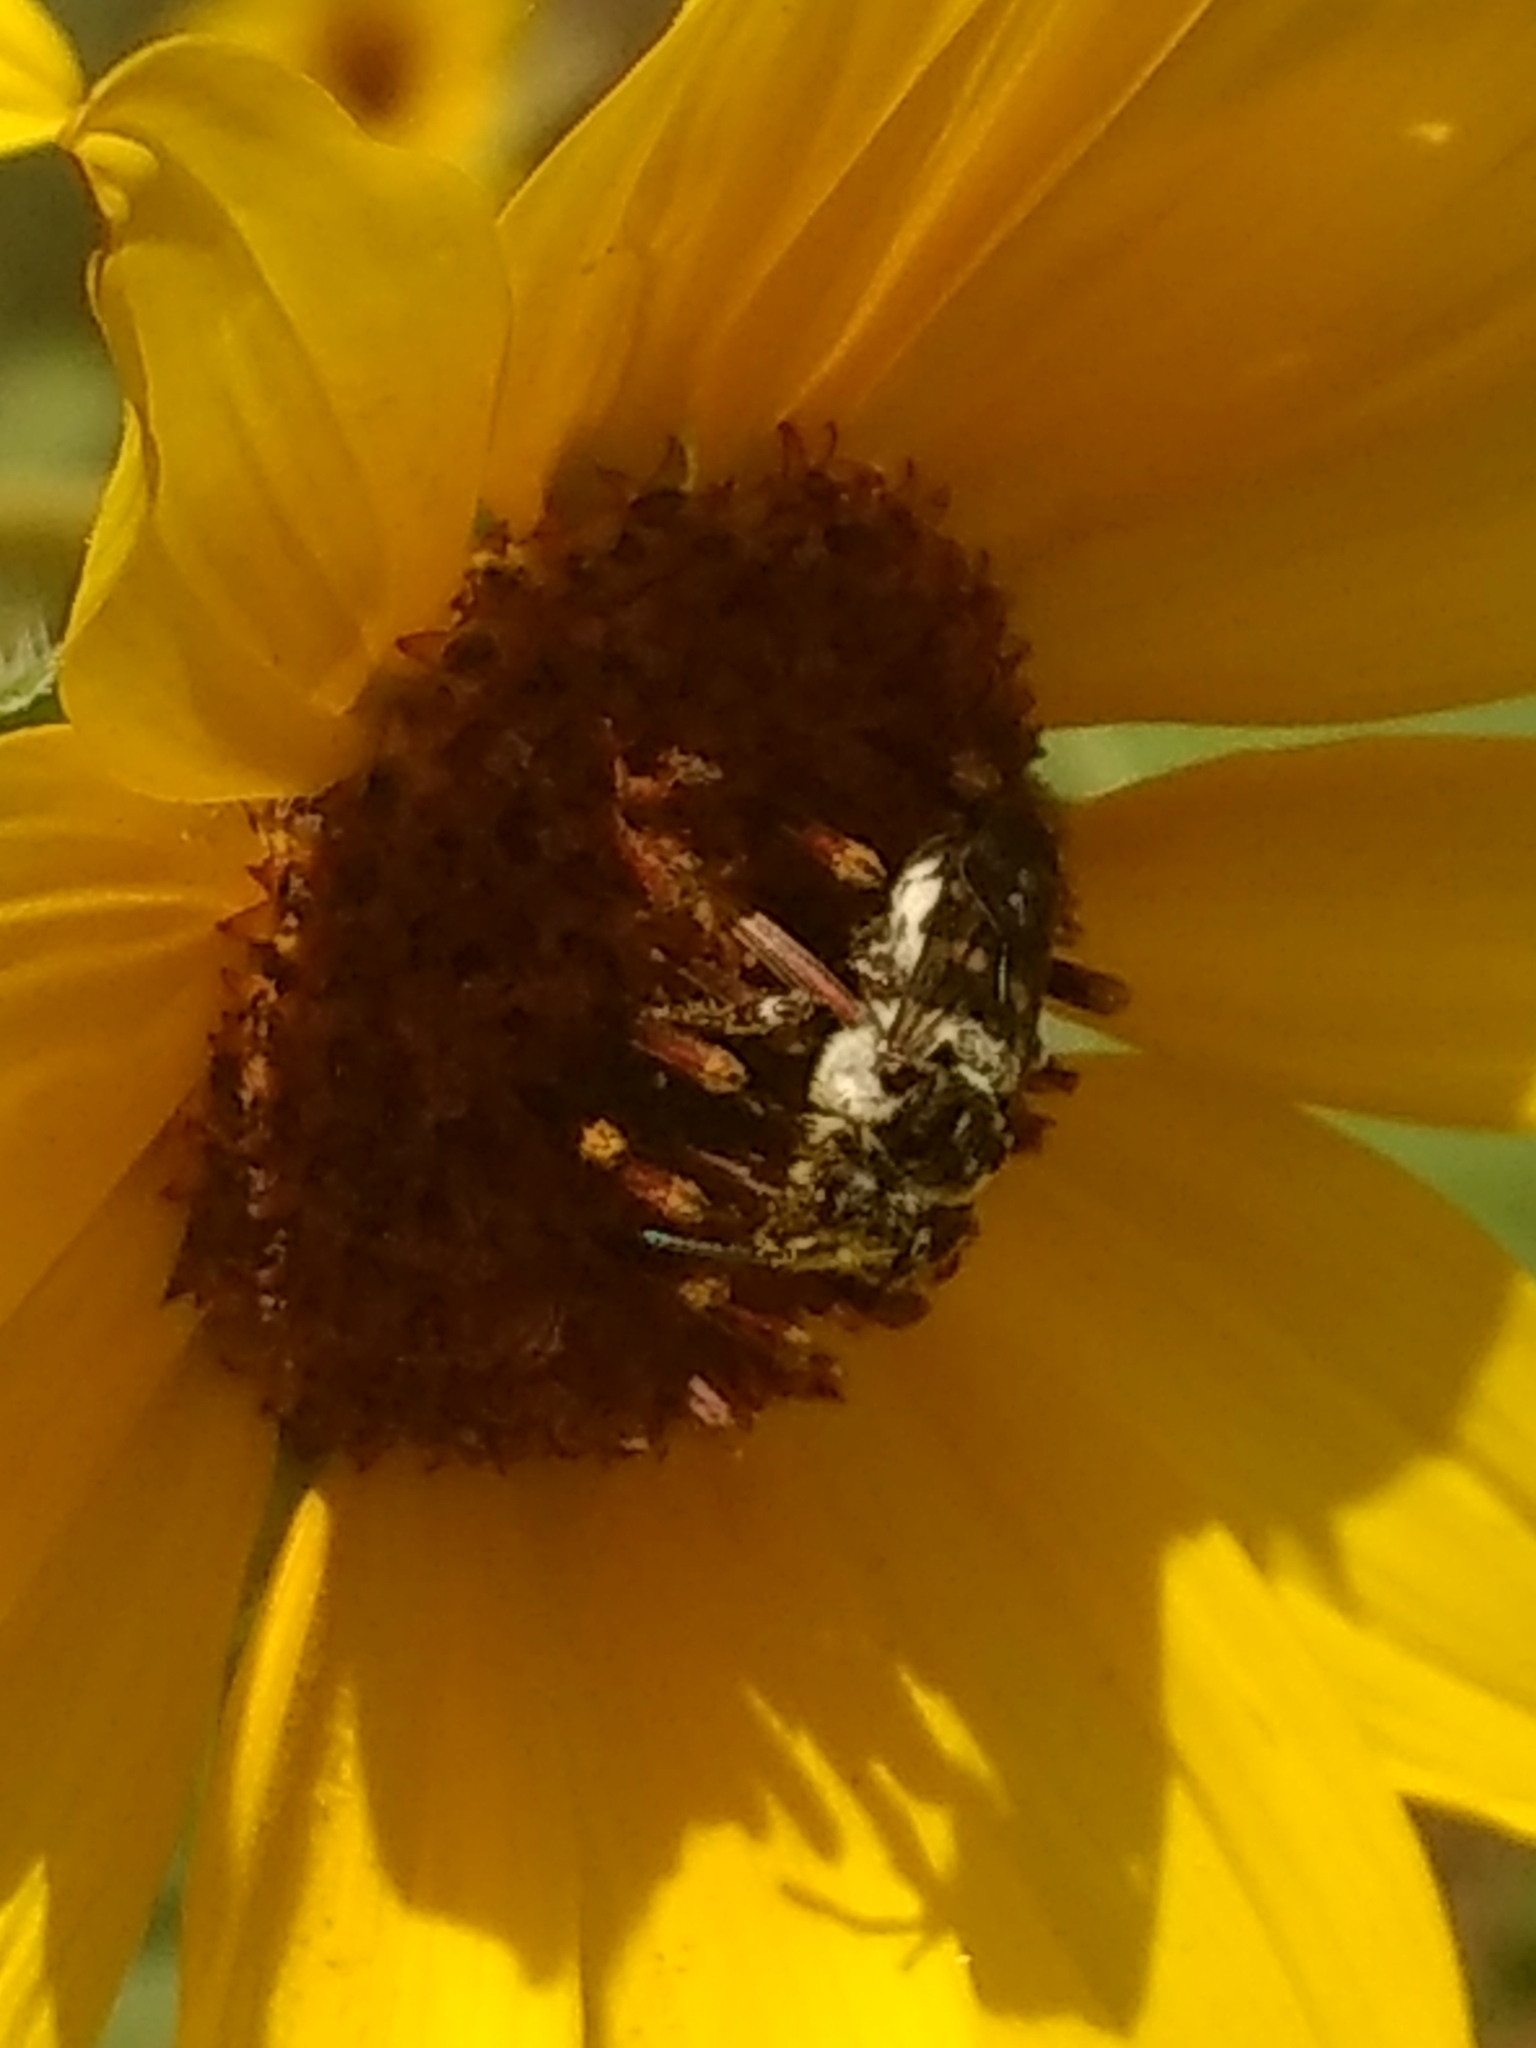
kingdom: Animalia
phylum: Arthropoda
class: Insecta
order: Hymenoptera
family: Apidae
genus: Brachymelecta
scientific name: Brachymelecta californica
